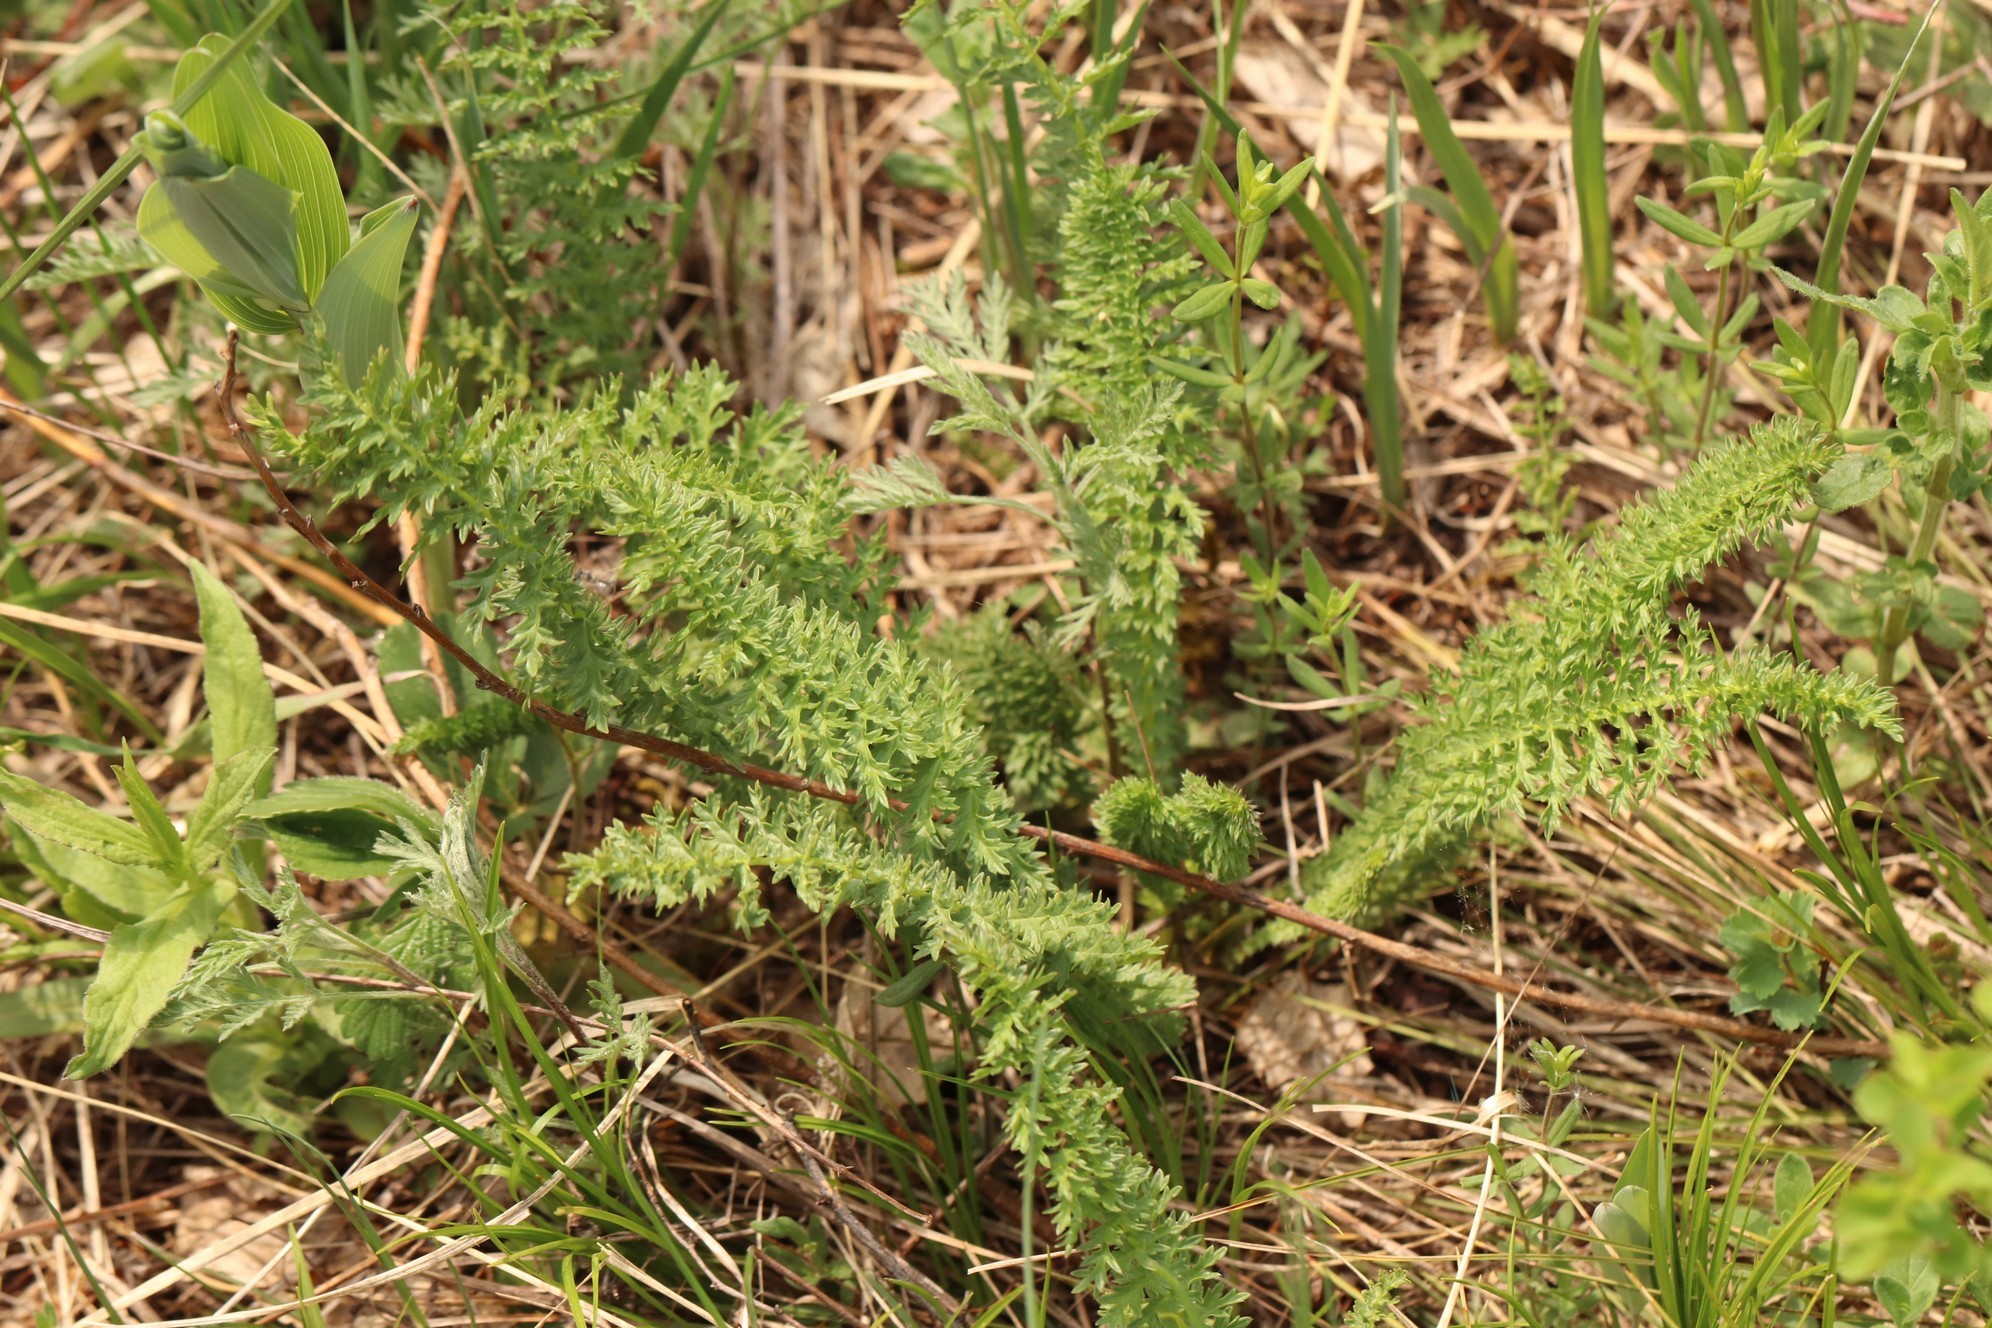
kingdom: Plantae
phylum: Tracheophyta
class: Magnoliopsida
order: Rosales
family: Rosaceae
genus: Filipendula
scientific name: Filipendula vulgaris
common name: Dropwort
